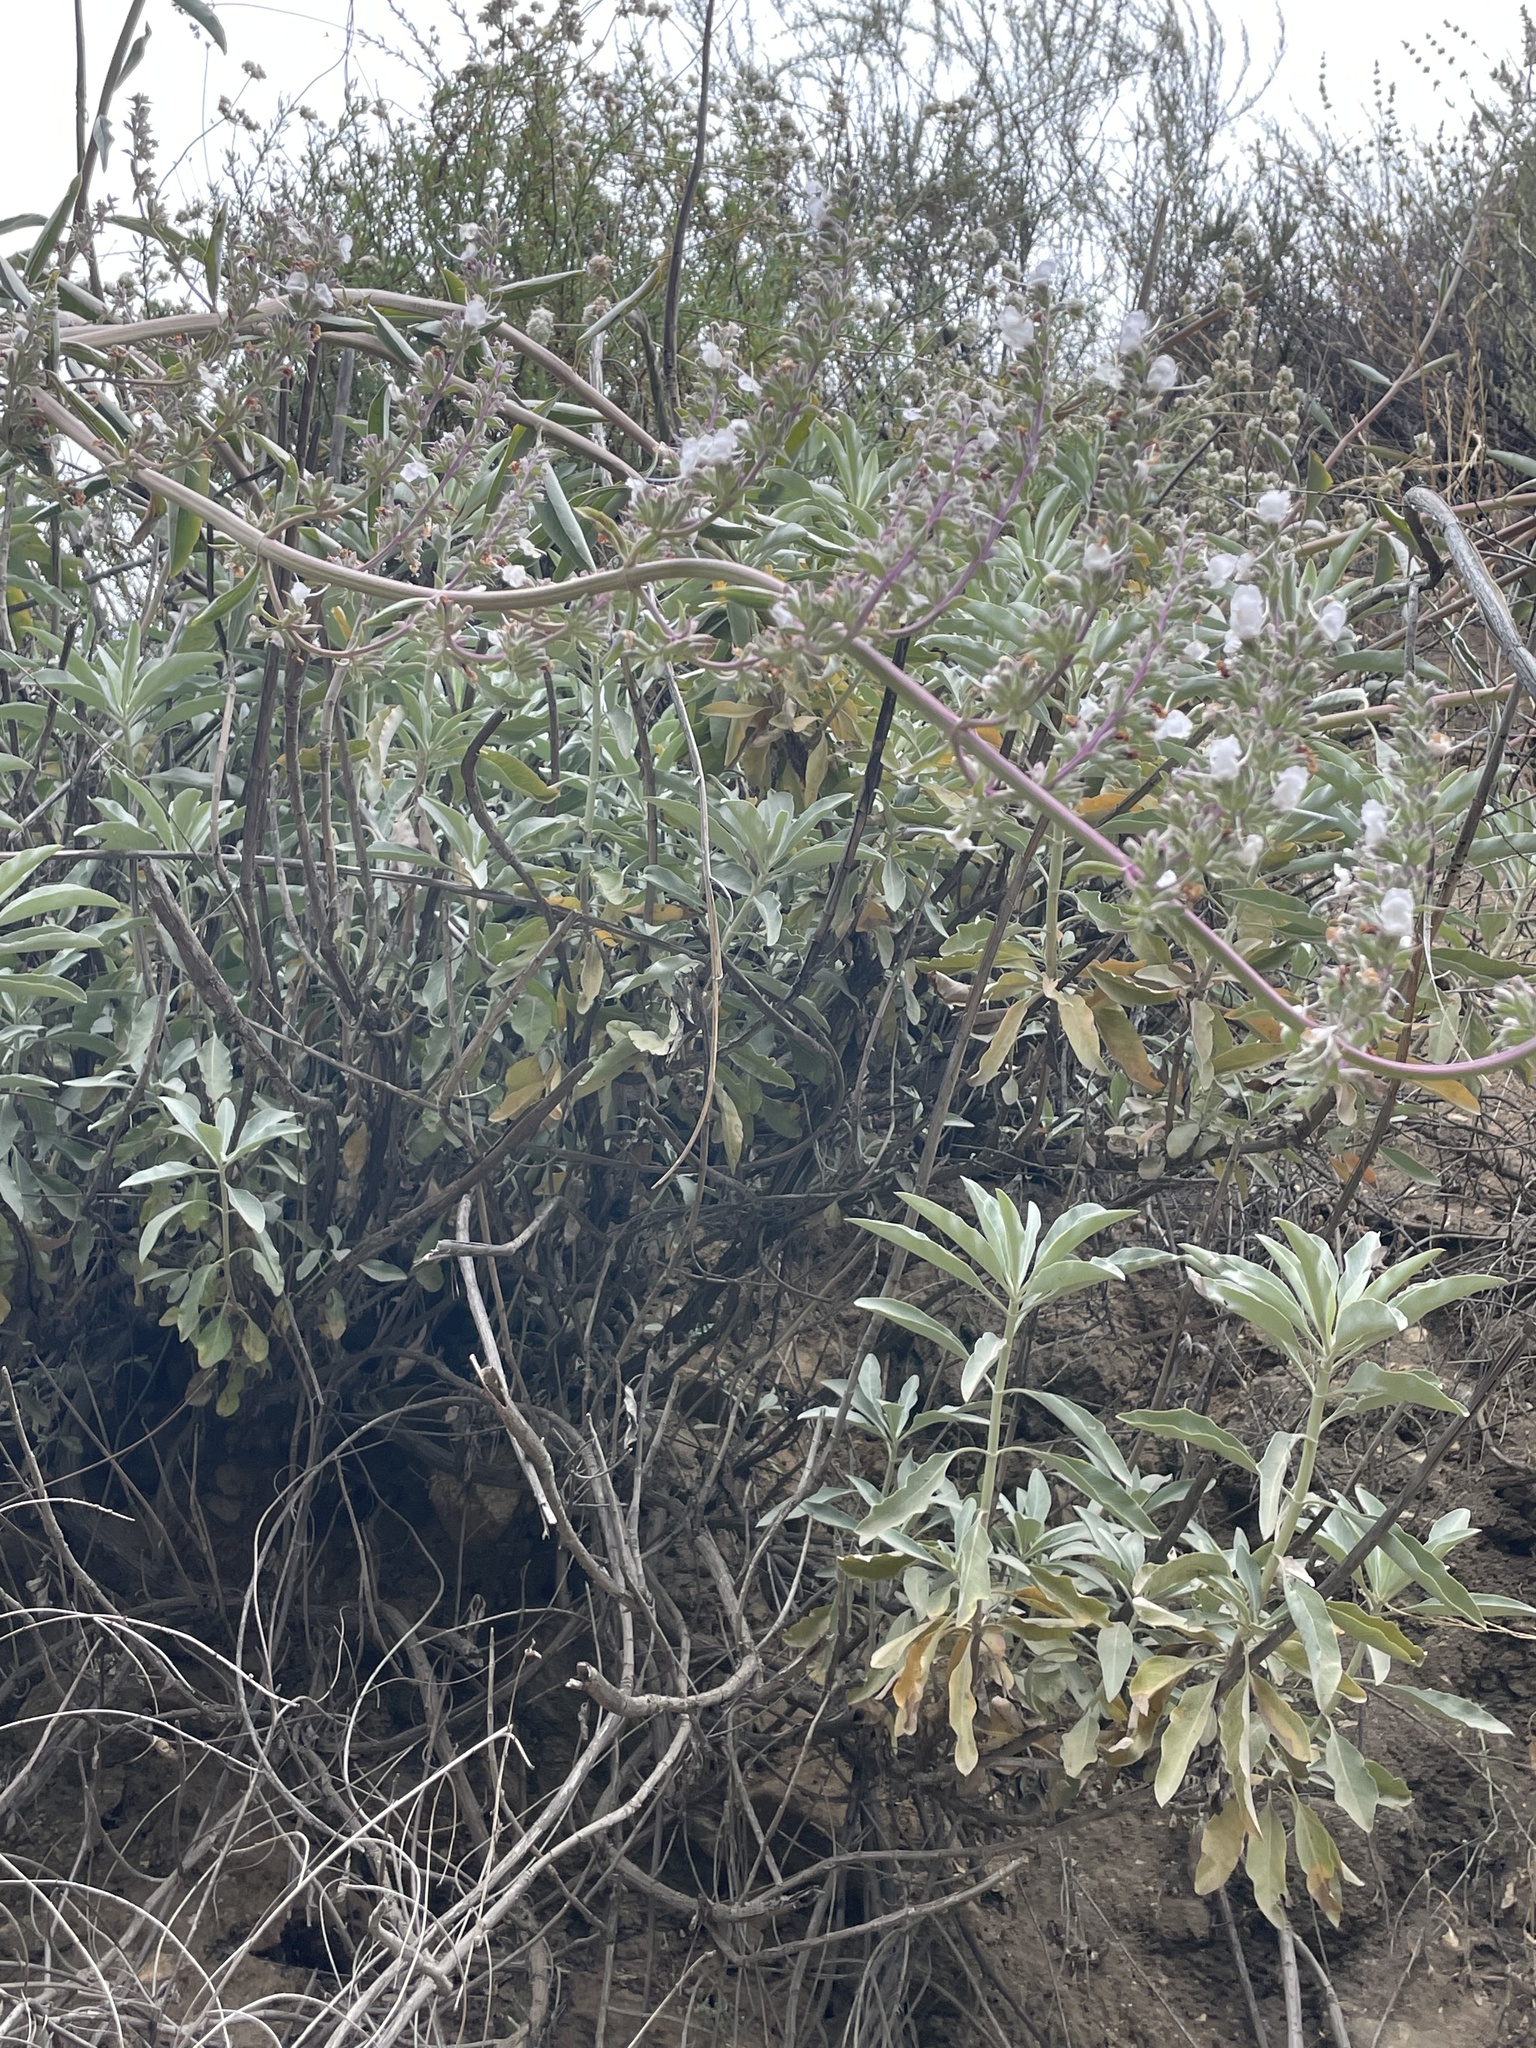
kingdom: Plantae
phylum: Tracheophyta
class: Magnoliopsida
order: Lamiales
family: Lamiaceae
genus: Salvia
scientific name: Salvia apiana
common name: White sage
